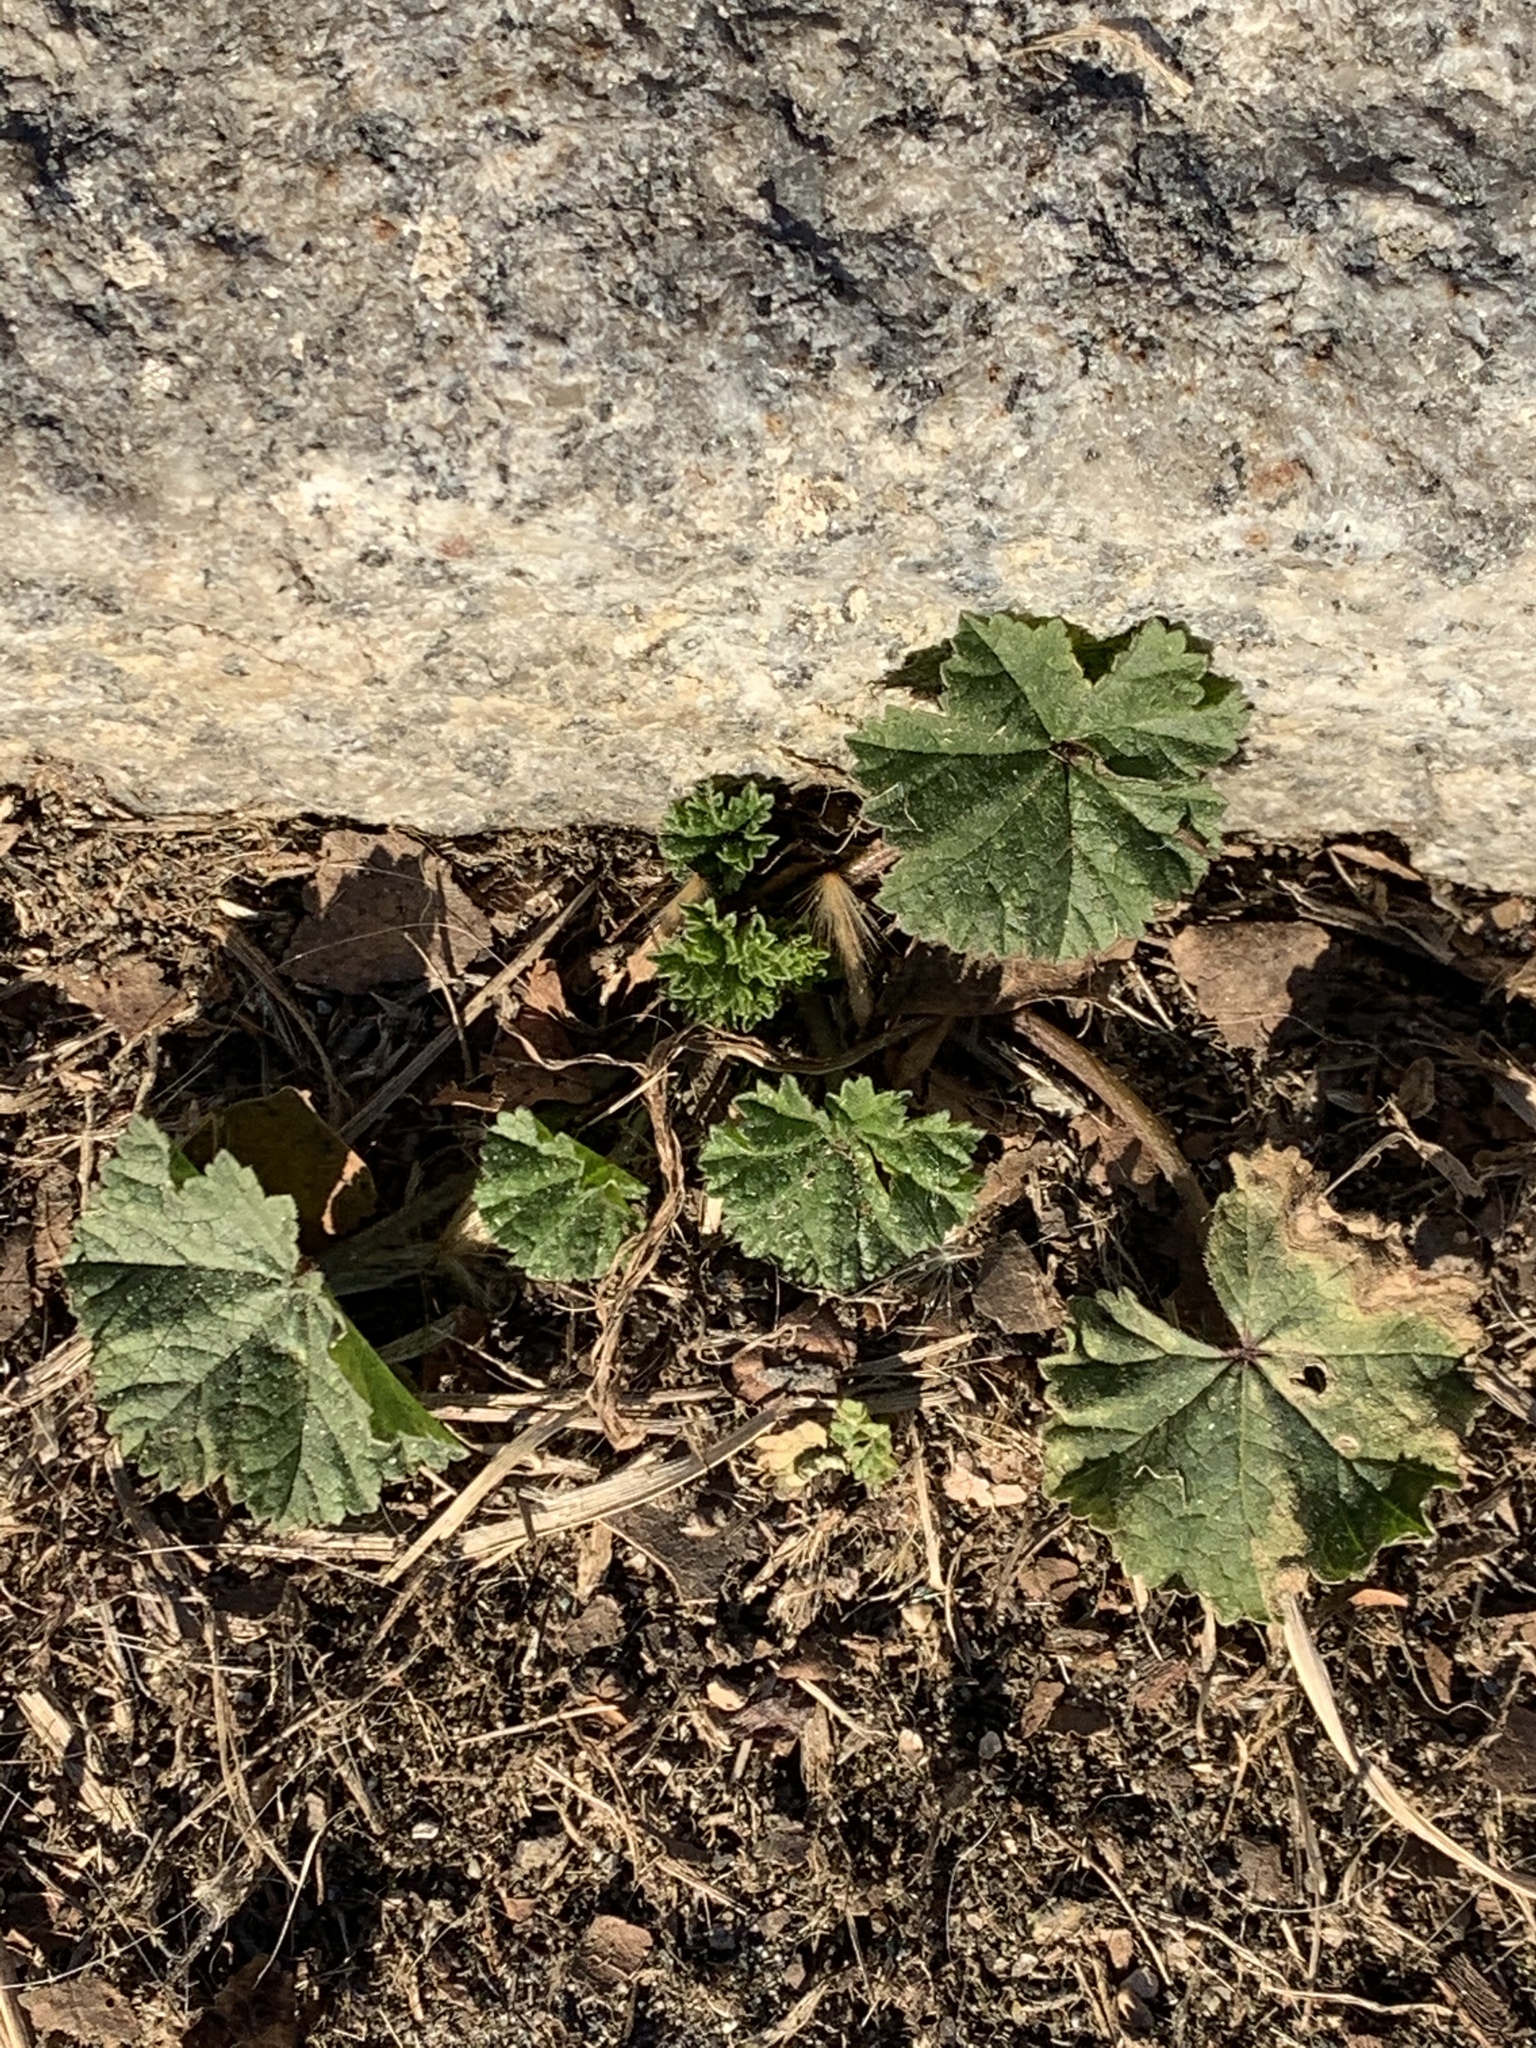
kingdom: Plantae
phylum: Tracheophyta
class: Magnoliopsida
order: Malvales
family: Malvaceae
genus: Malva
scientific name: Malva neglecta
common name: Common mallow
